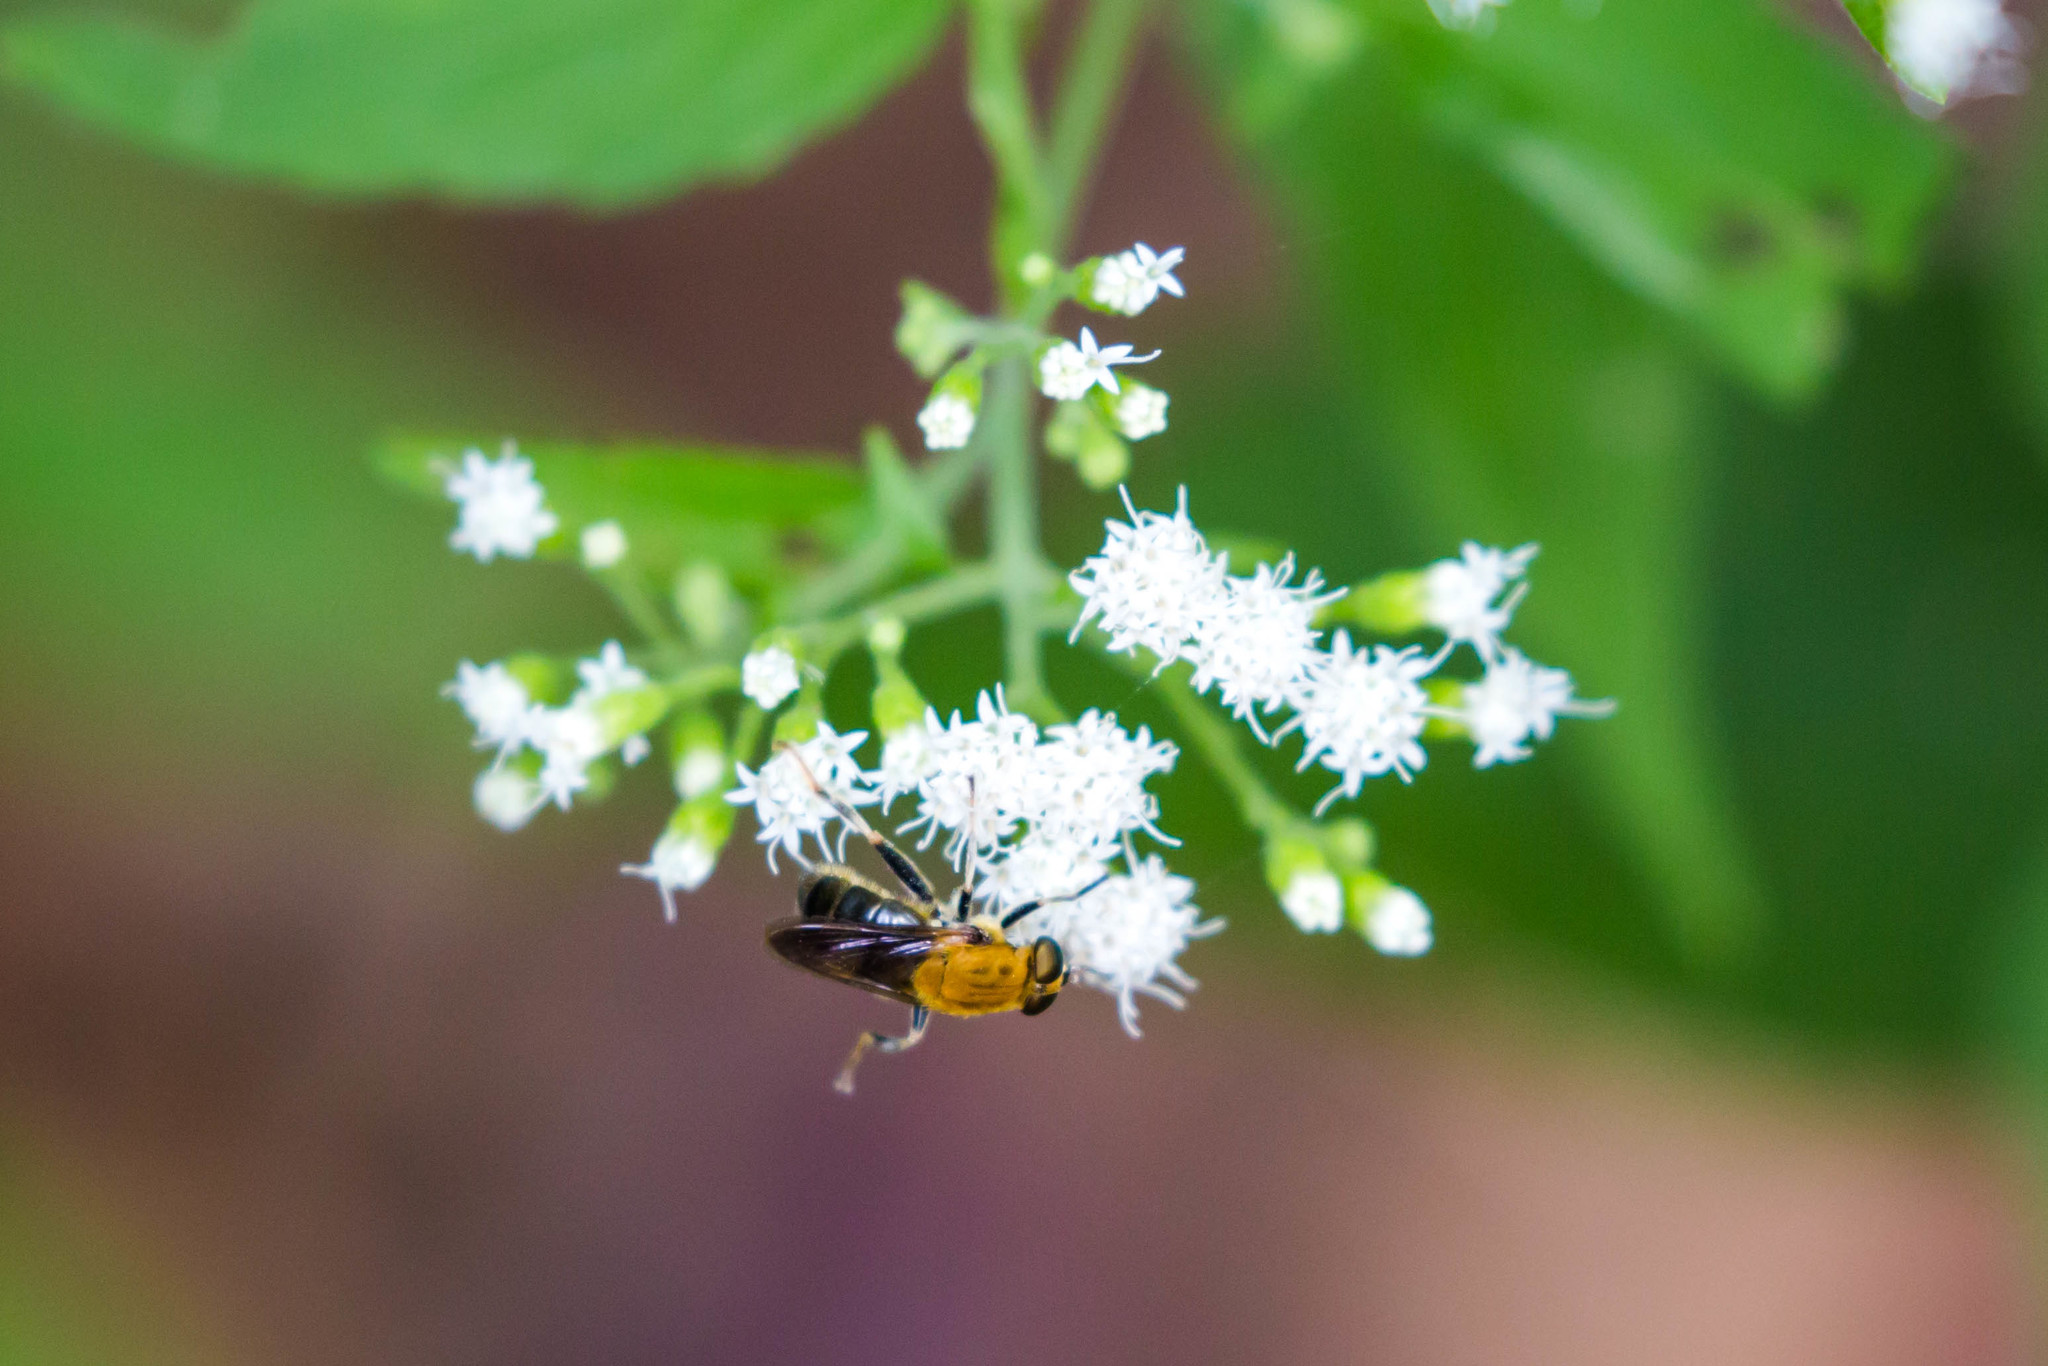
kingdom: Animalia
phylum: Arthropoda
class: Insecta
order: Diptera
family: Syrphidae
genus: Pterallastes
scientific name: Pterallastes thoracicus
